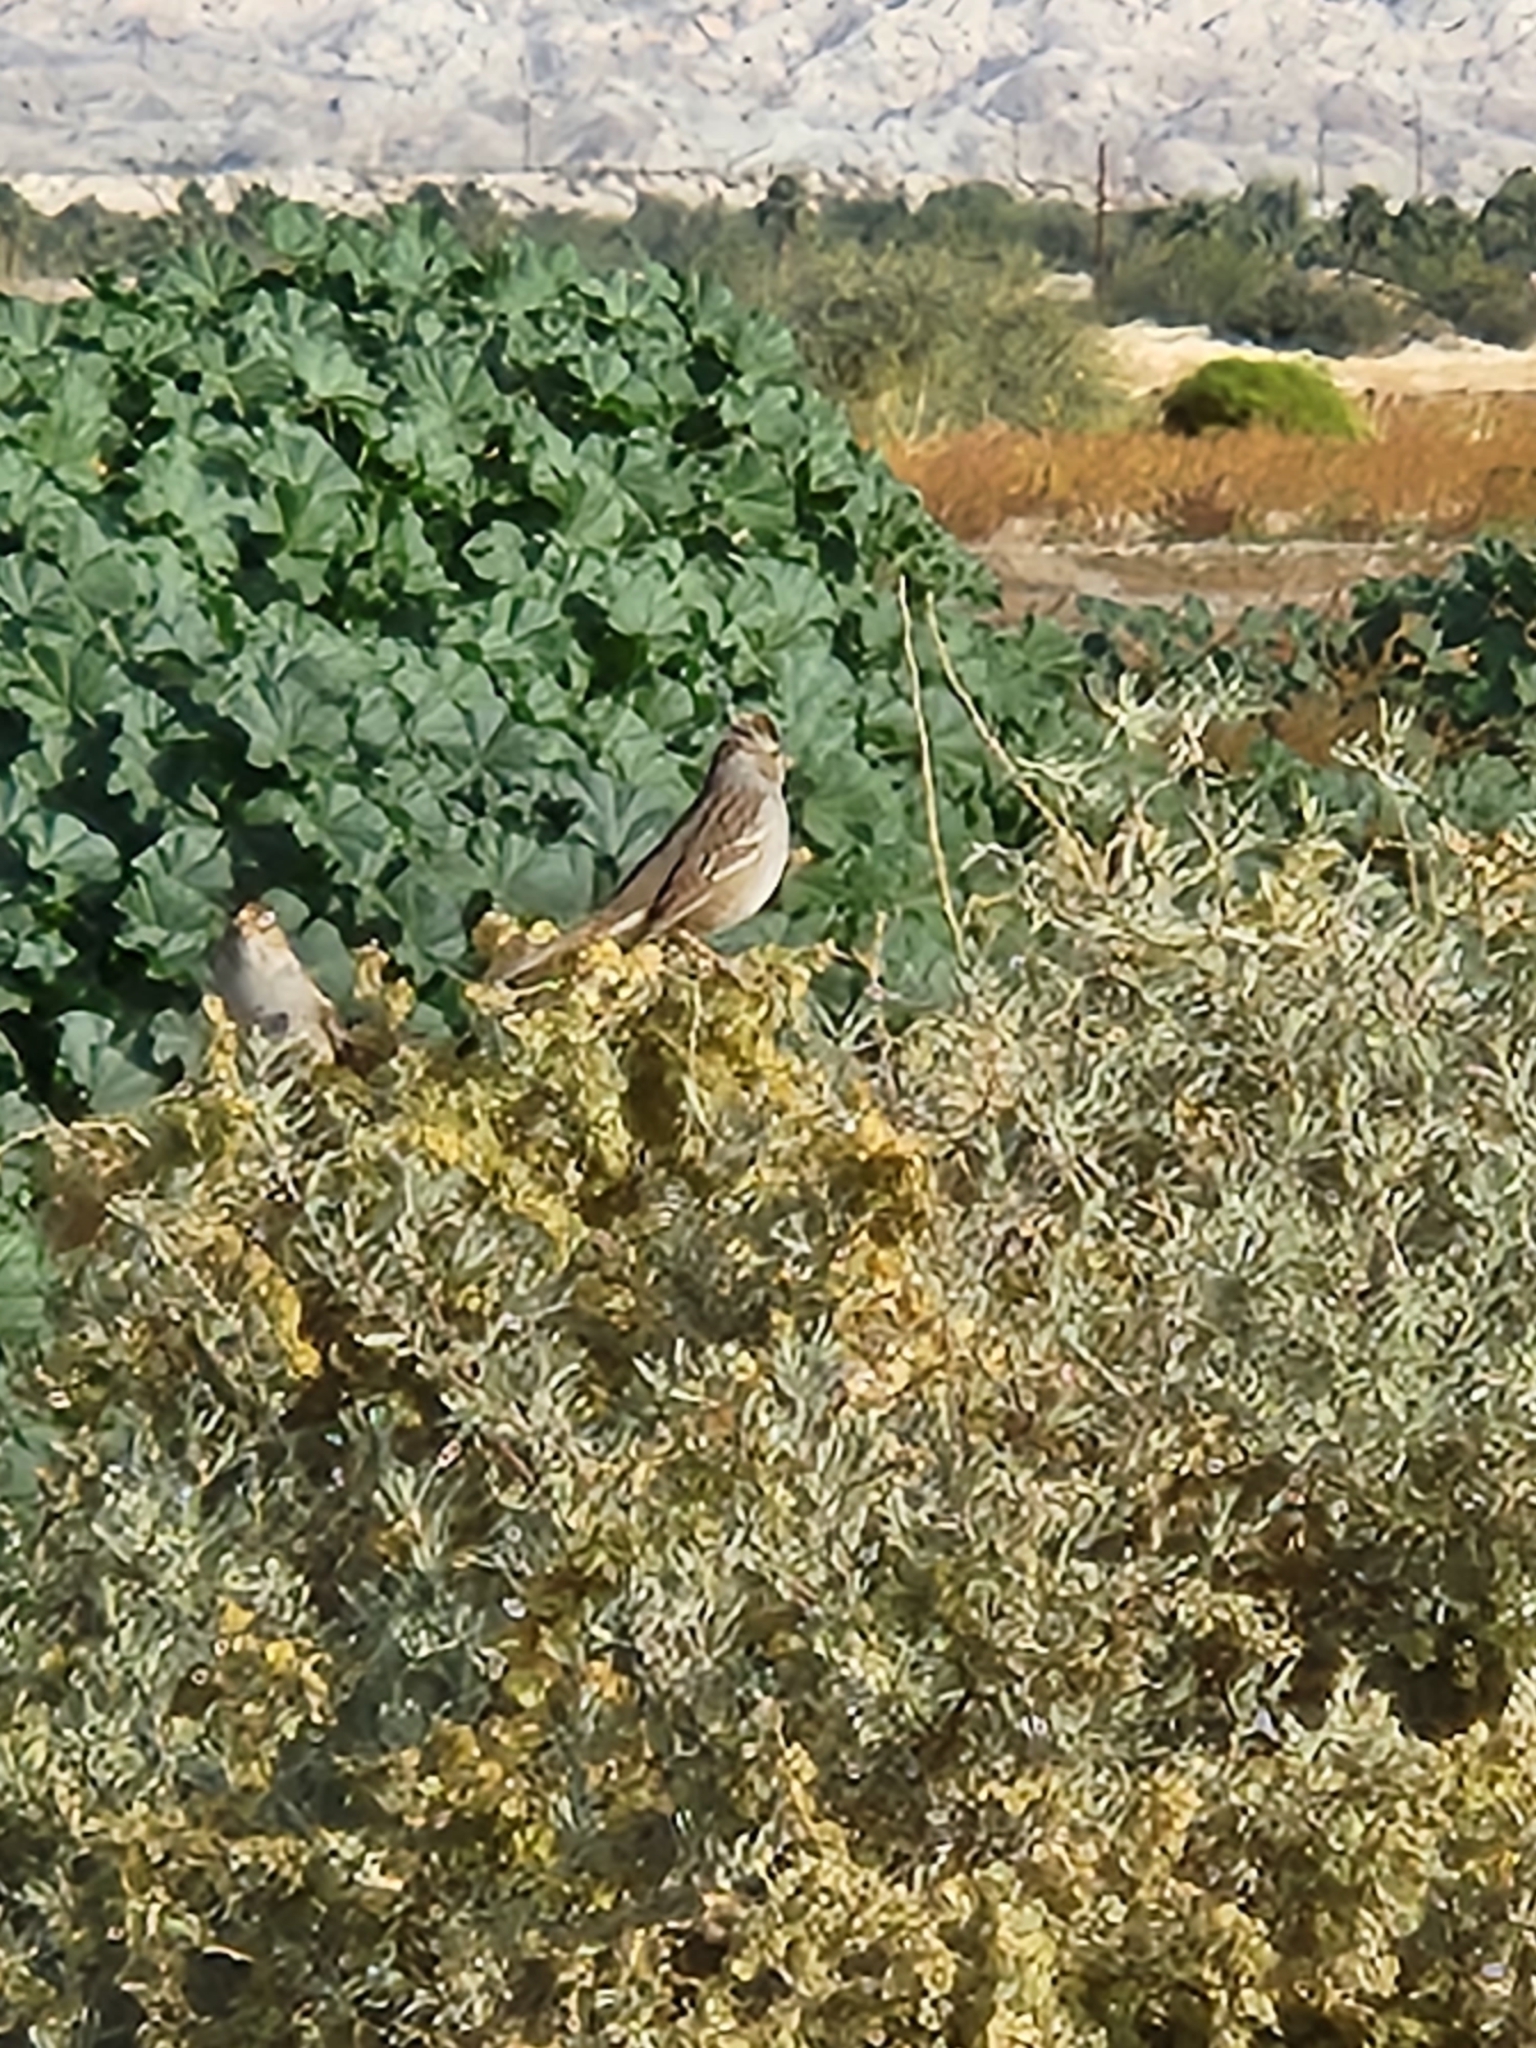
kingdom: Animalia
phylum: Chordata
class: Aves
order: Passeriformes
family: Passerellidae
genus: Zonotrichia
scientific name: Zonotrichia leucophrys
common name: White-crowned sparrow
